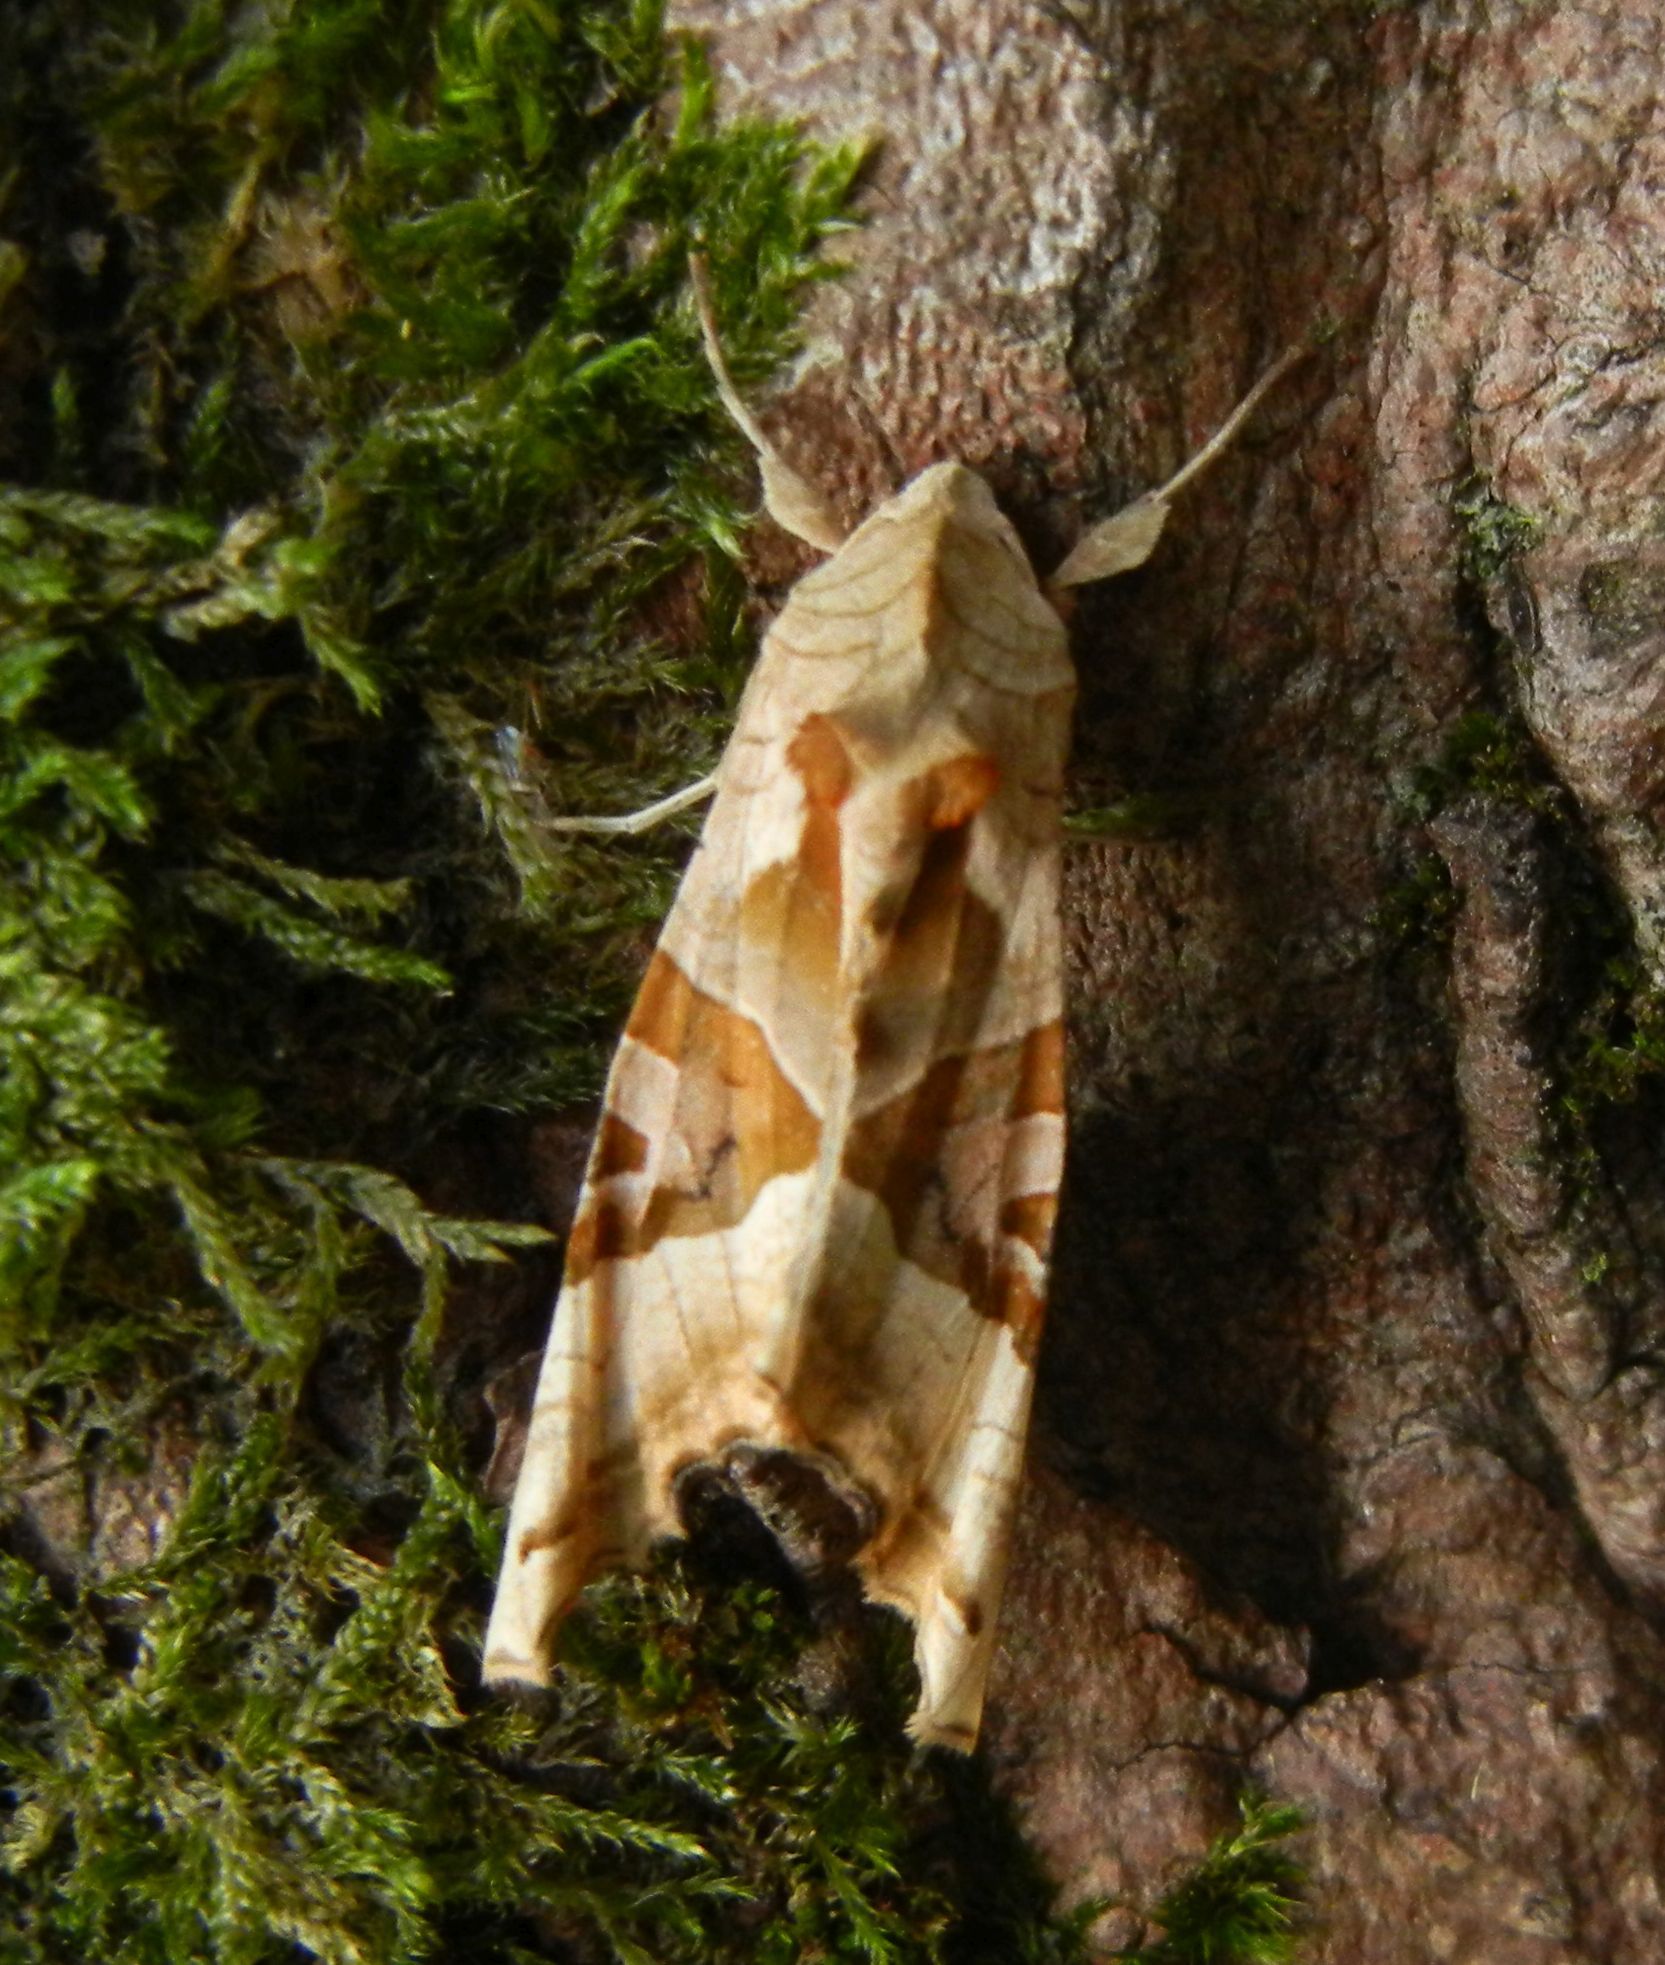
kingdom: Animalia
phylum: Arthropoda
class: Insecta
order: Lepidoptera
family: Noctuidae
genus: Phlogophora
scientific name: Phlogophora meticulosa
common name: Angle shades
